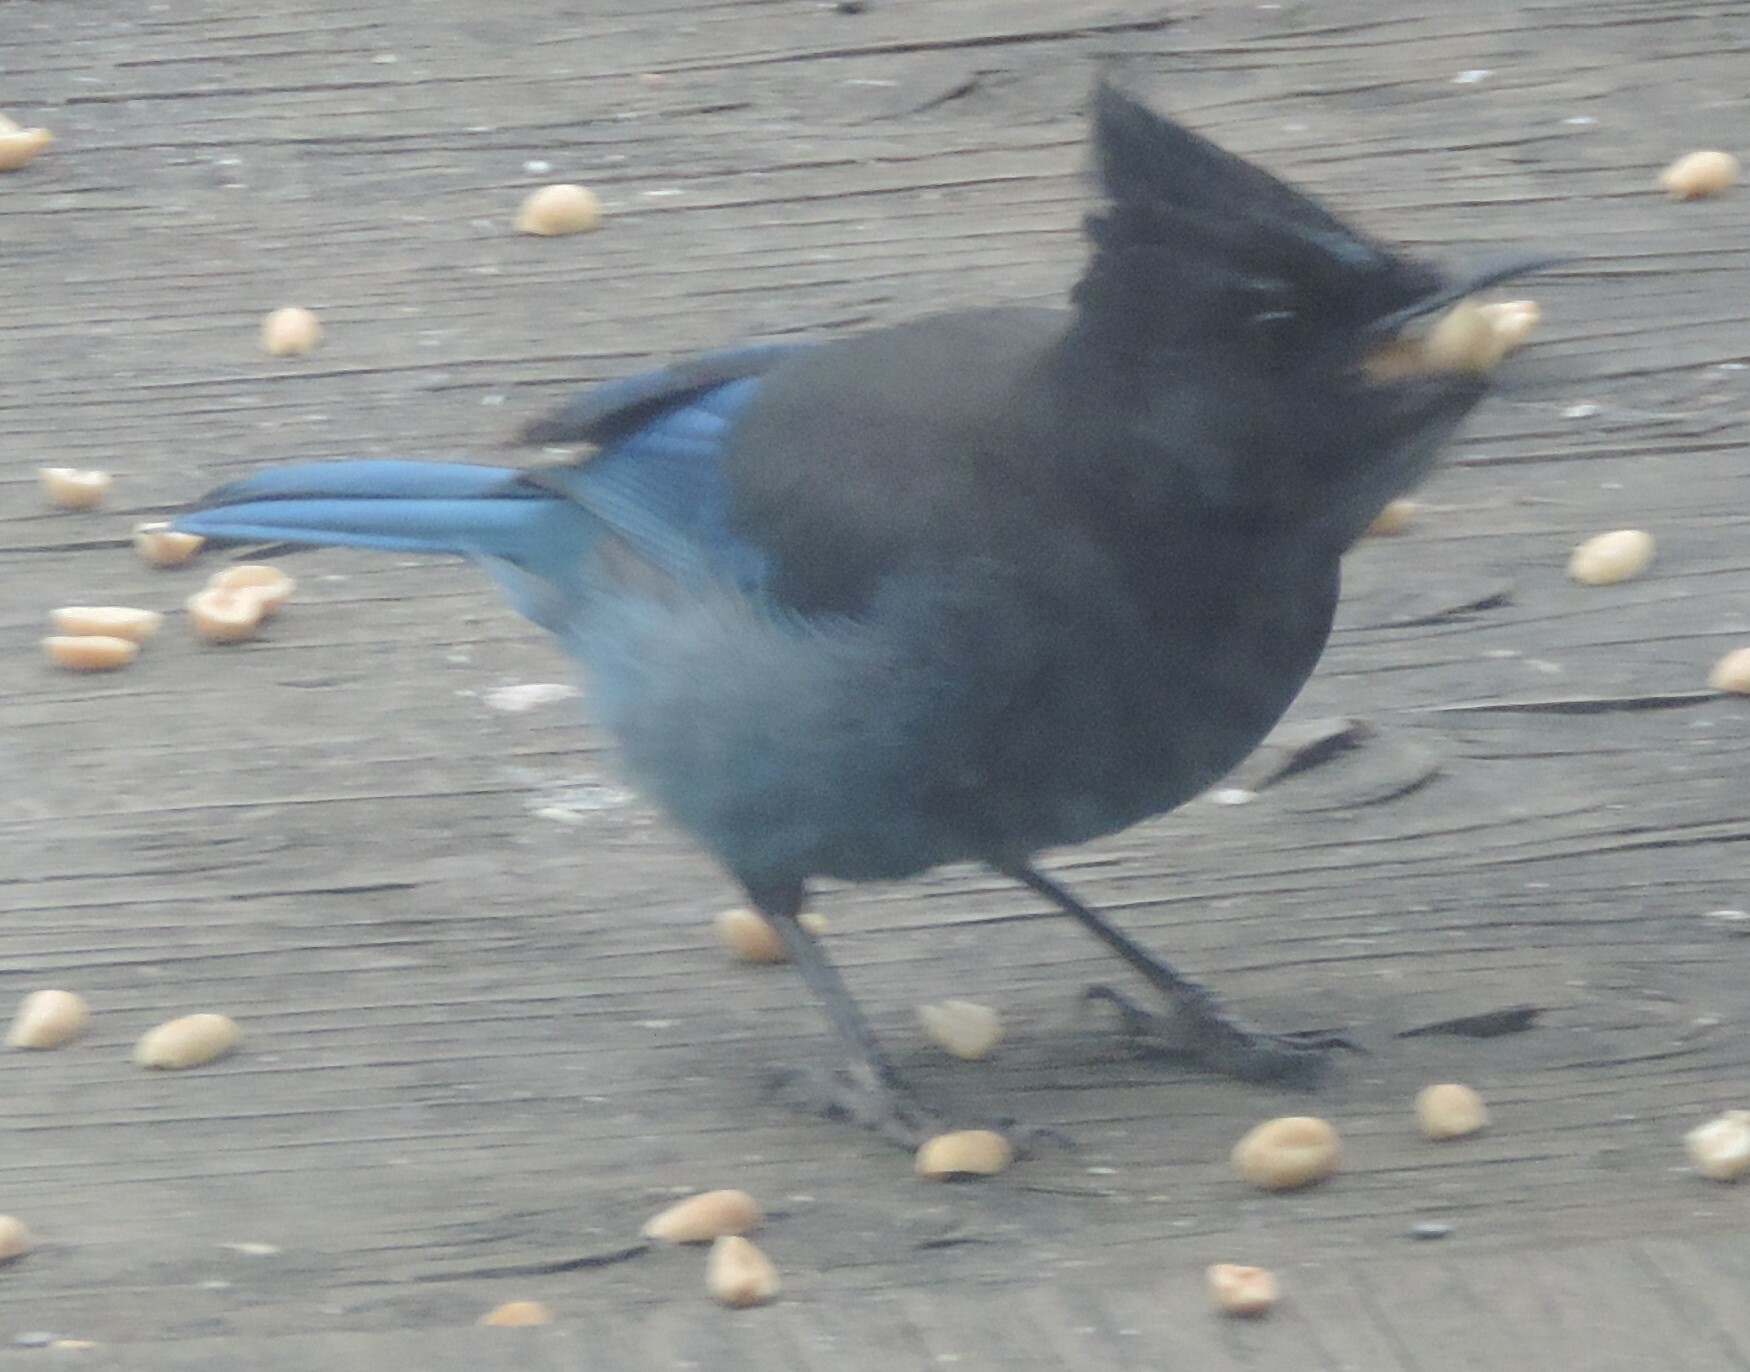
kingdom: Animalia
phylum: Chordata
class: Aves
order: Passeriformes
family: Corvidae
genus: Cyanocitta
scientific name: Cyanocitta stelleri
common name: Steller's jay
